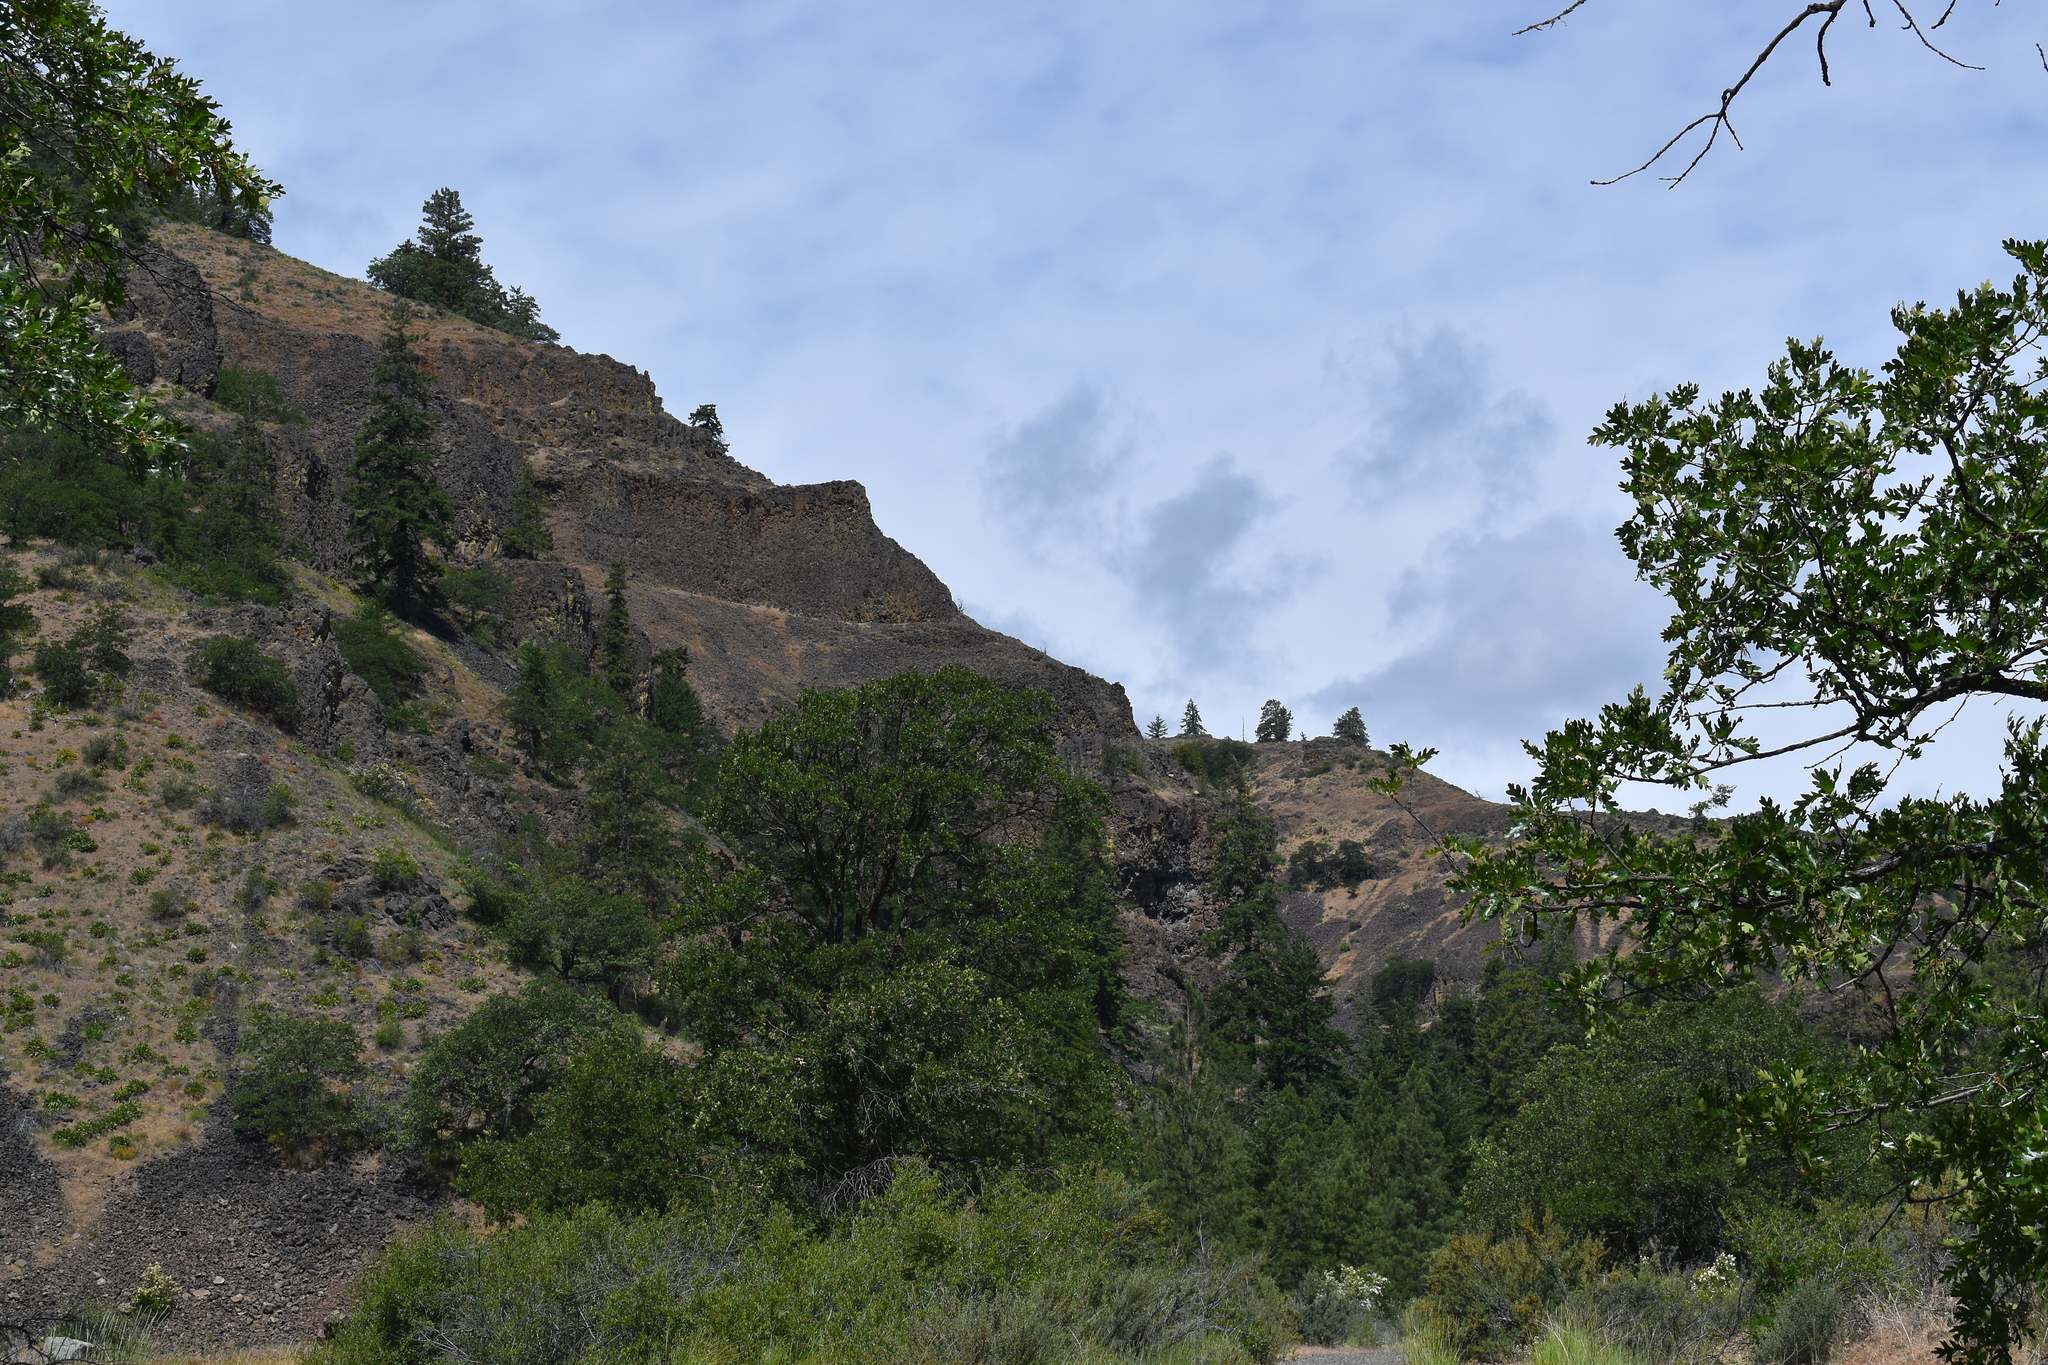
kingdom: Plantae
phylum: Tracheophyta
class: Magnoliopsida
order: Fagales
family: Fagaceae
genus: Quercus
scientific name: Quercus garryana
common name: Garry oak
